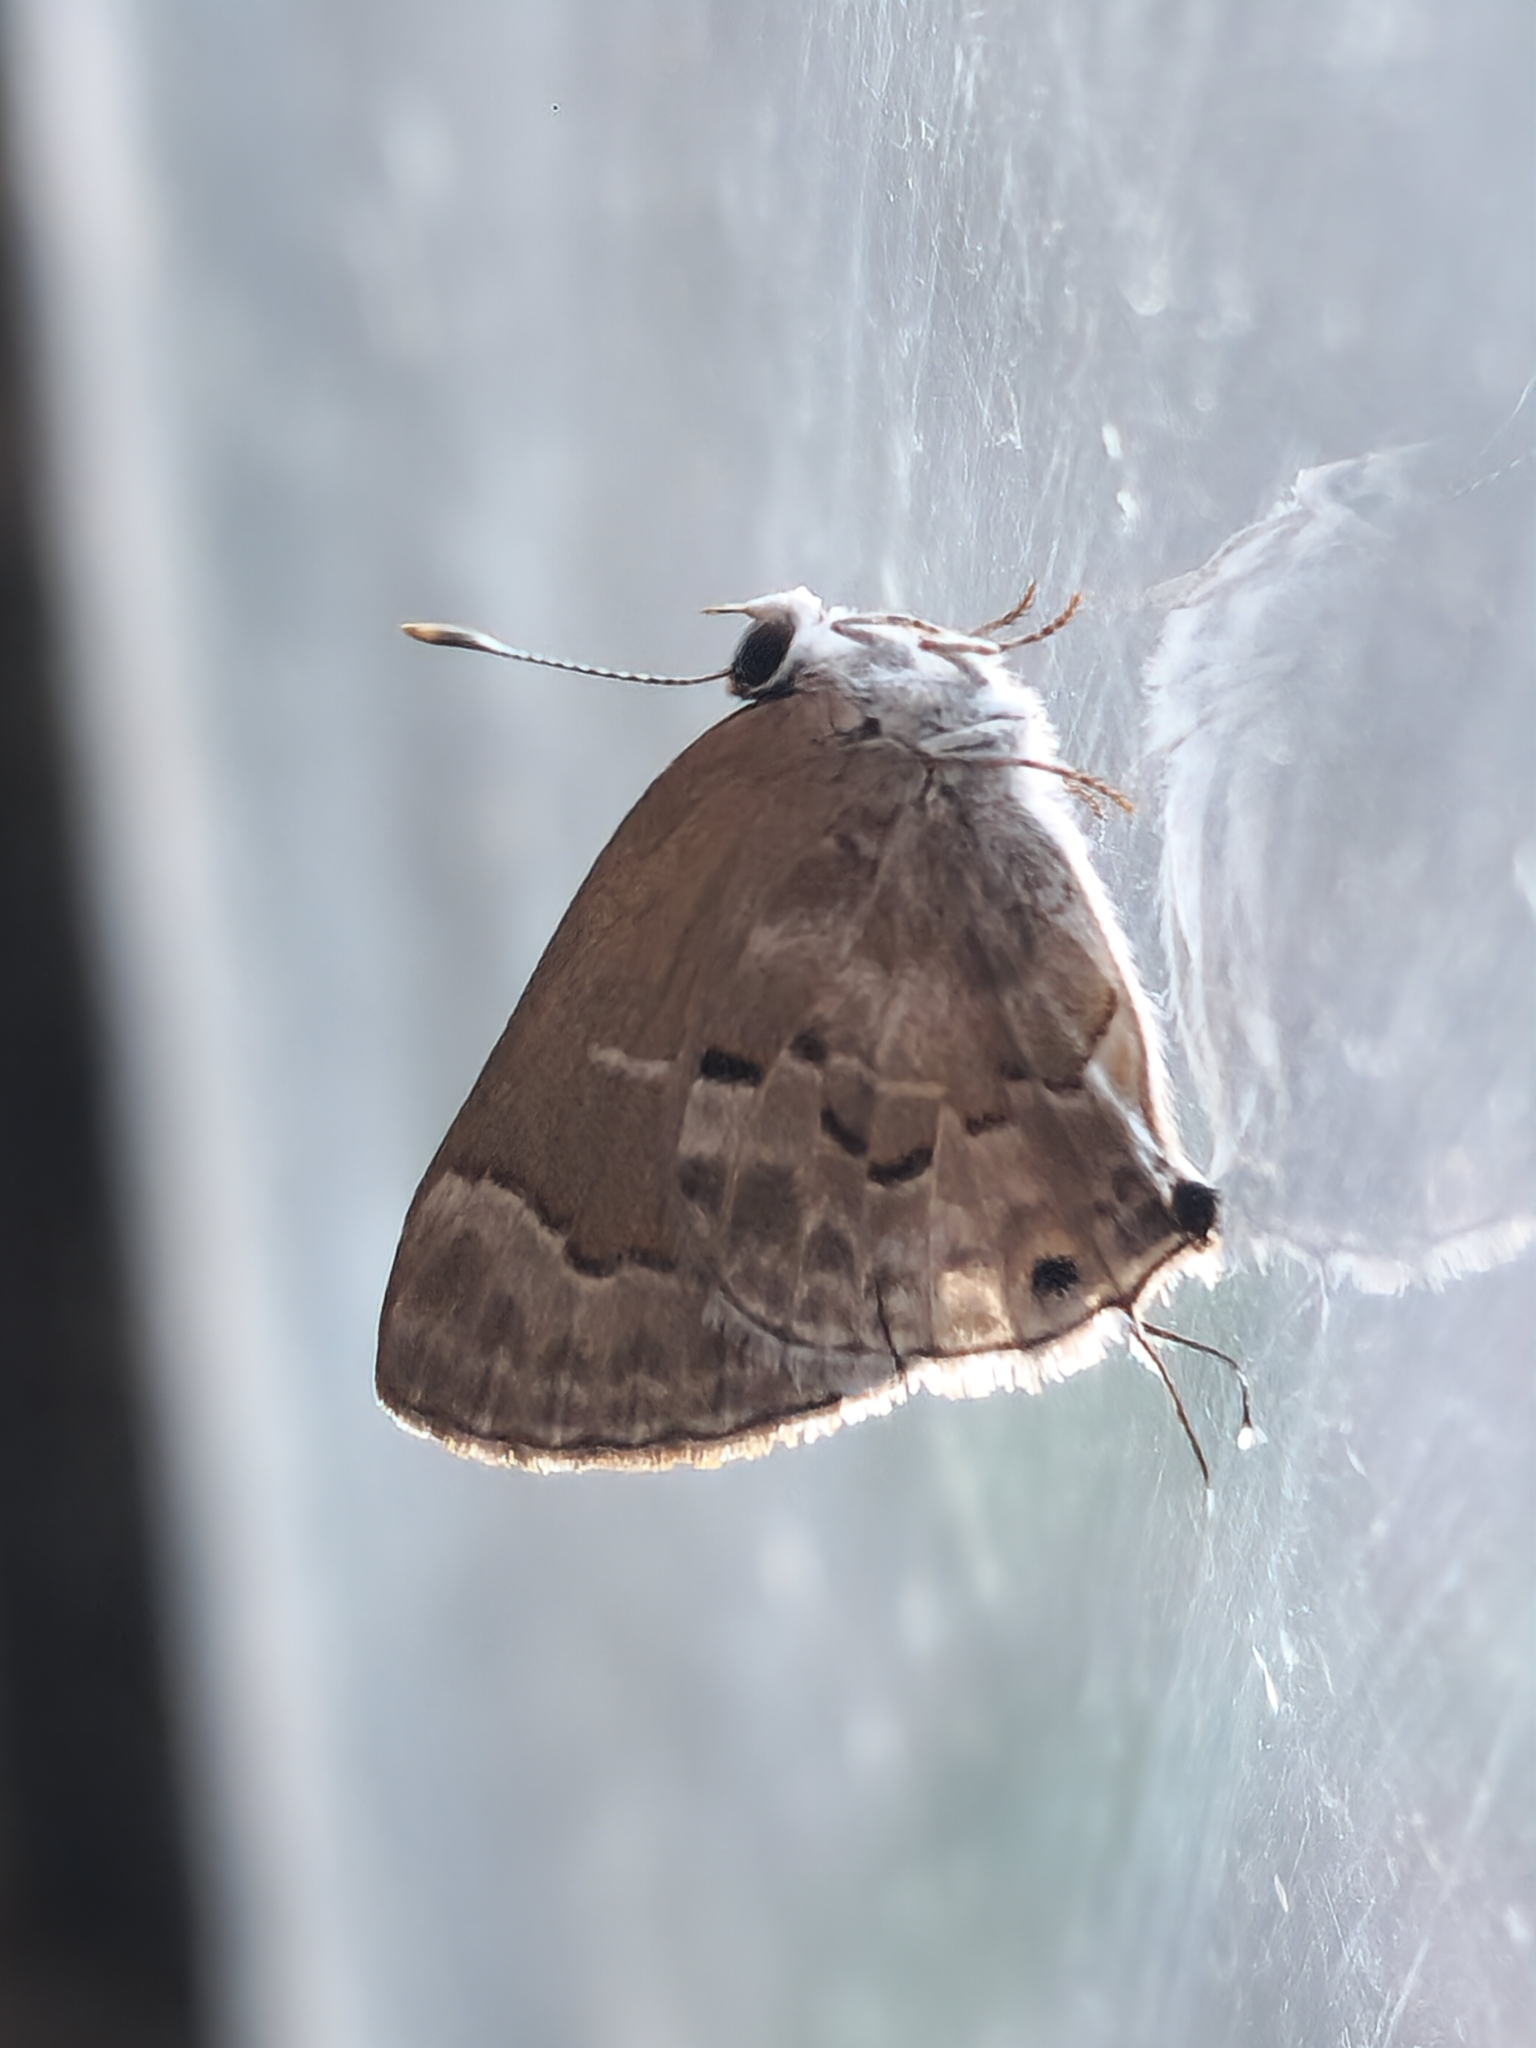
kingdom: Animalia
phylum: Arthropoda
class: Insecta
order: Lepidoptera
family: Lycaenidae
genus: Strymon
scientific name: Strymon mulucha
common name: Mottled scrub-hairstreak
